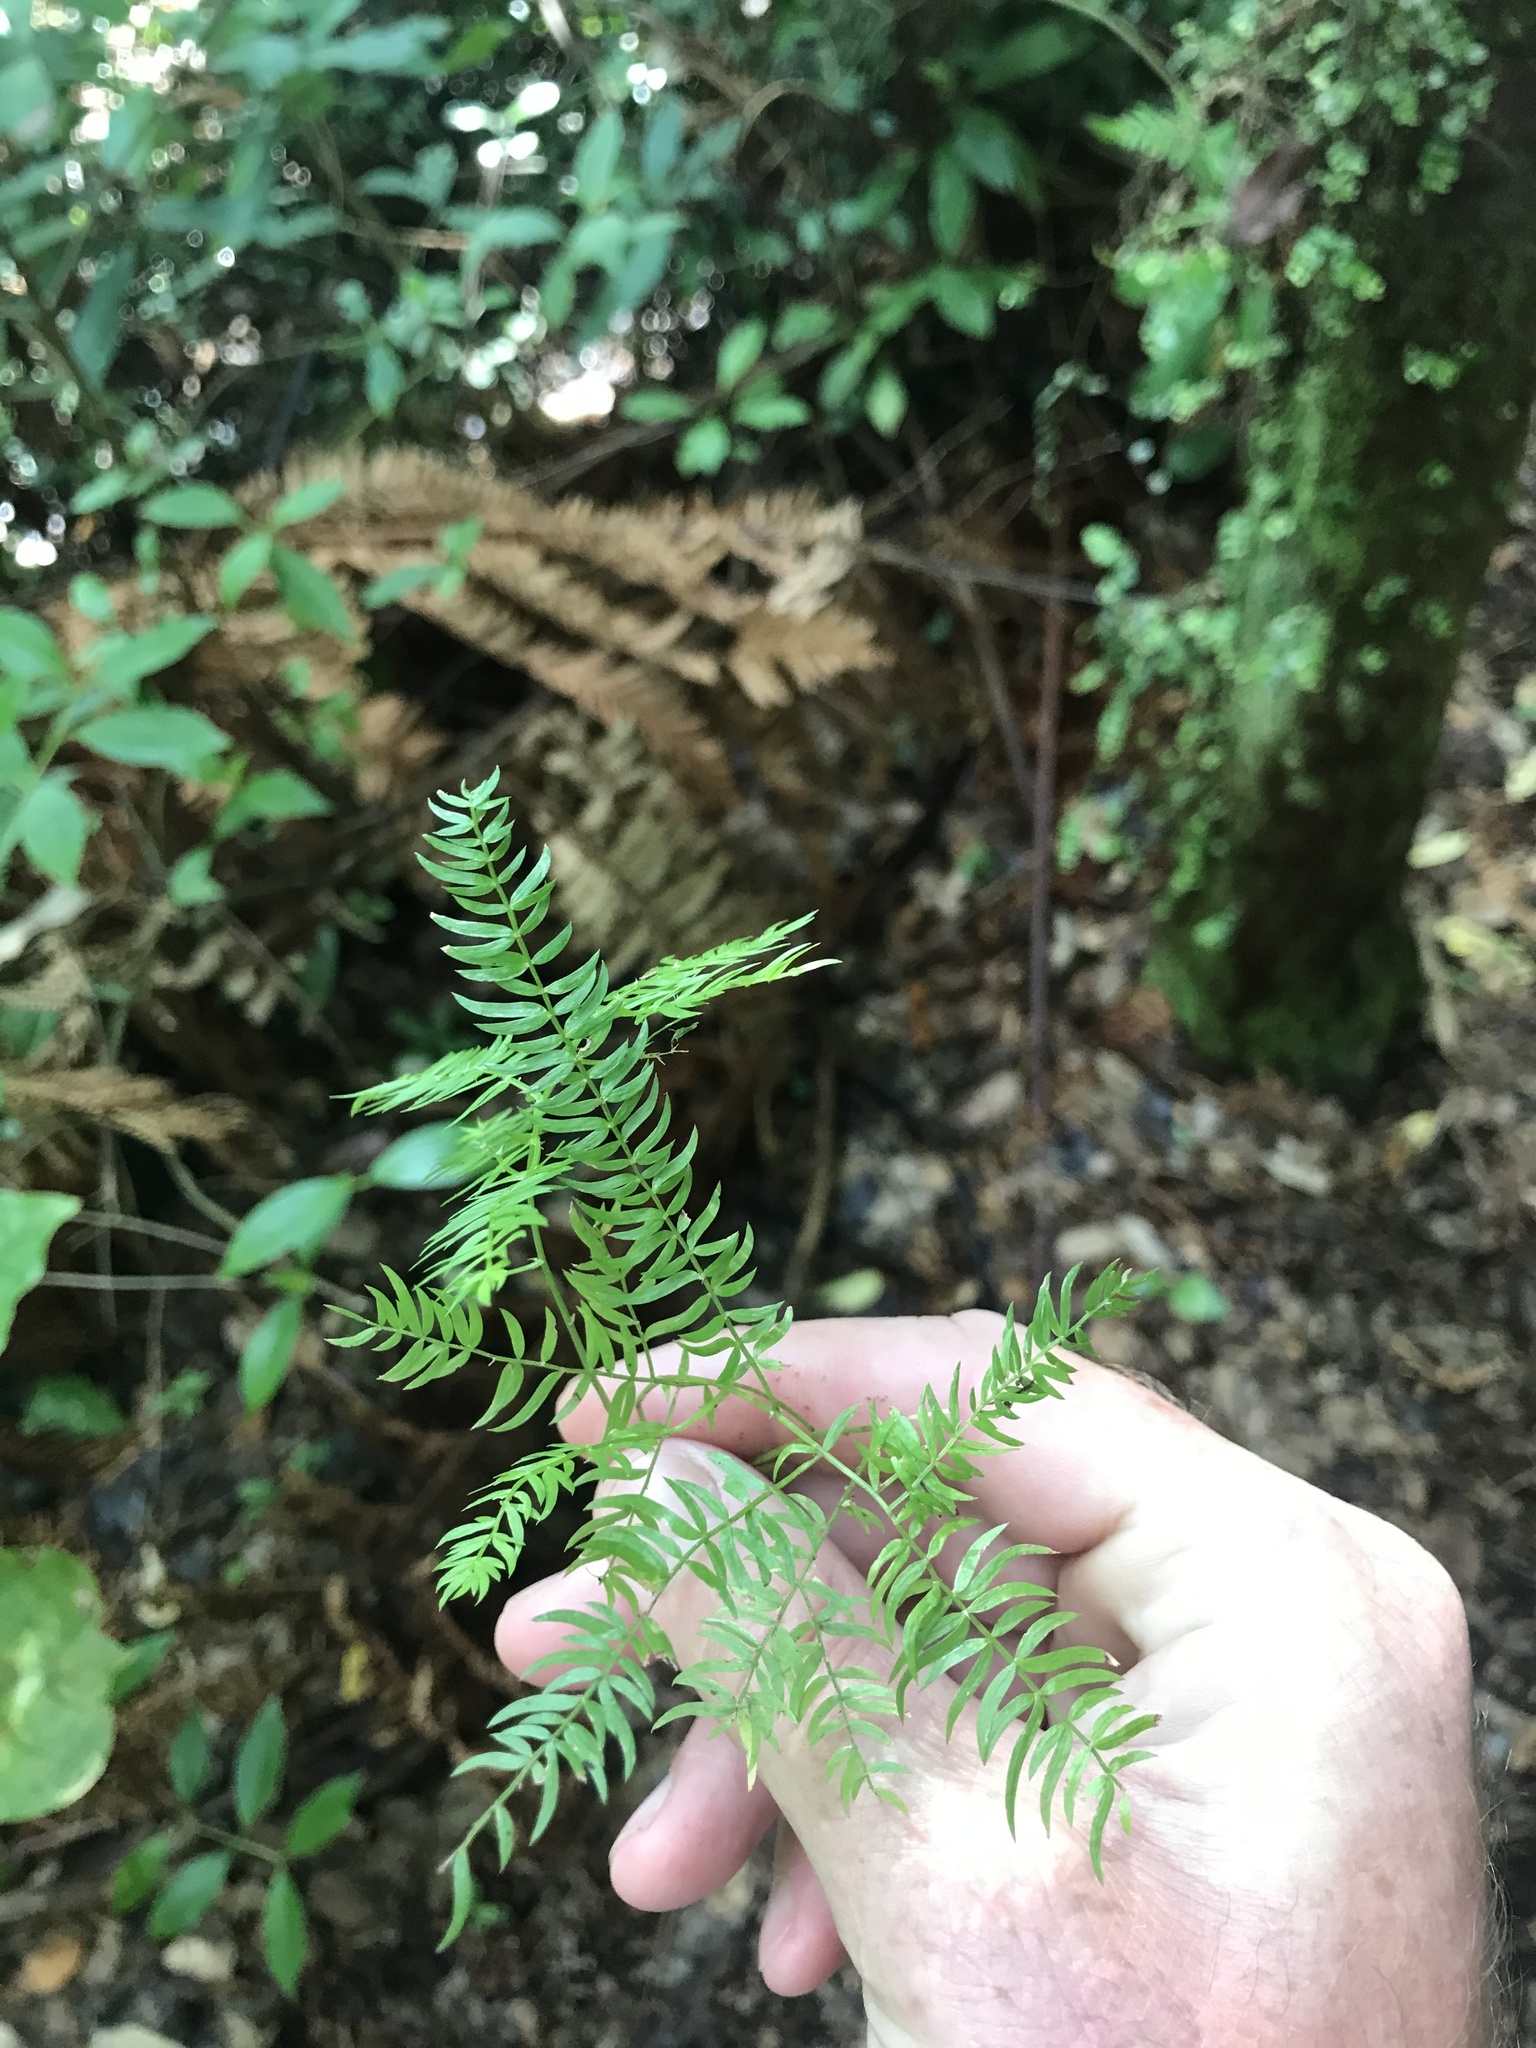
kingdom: Plantae
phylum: Tracheophyta
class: Liliopsida
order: Asparagales
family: Asparagaceae
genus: Asparagus
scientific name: Asparagus scandens
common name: Asparagus-fern
